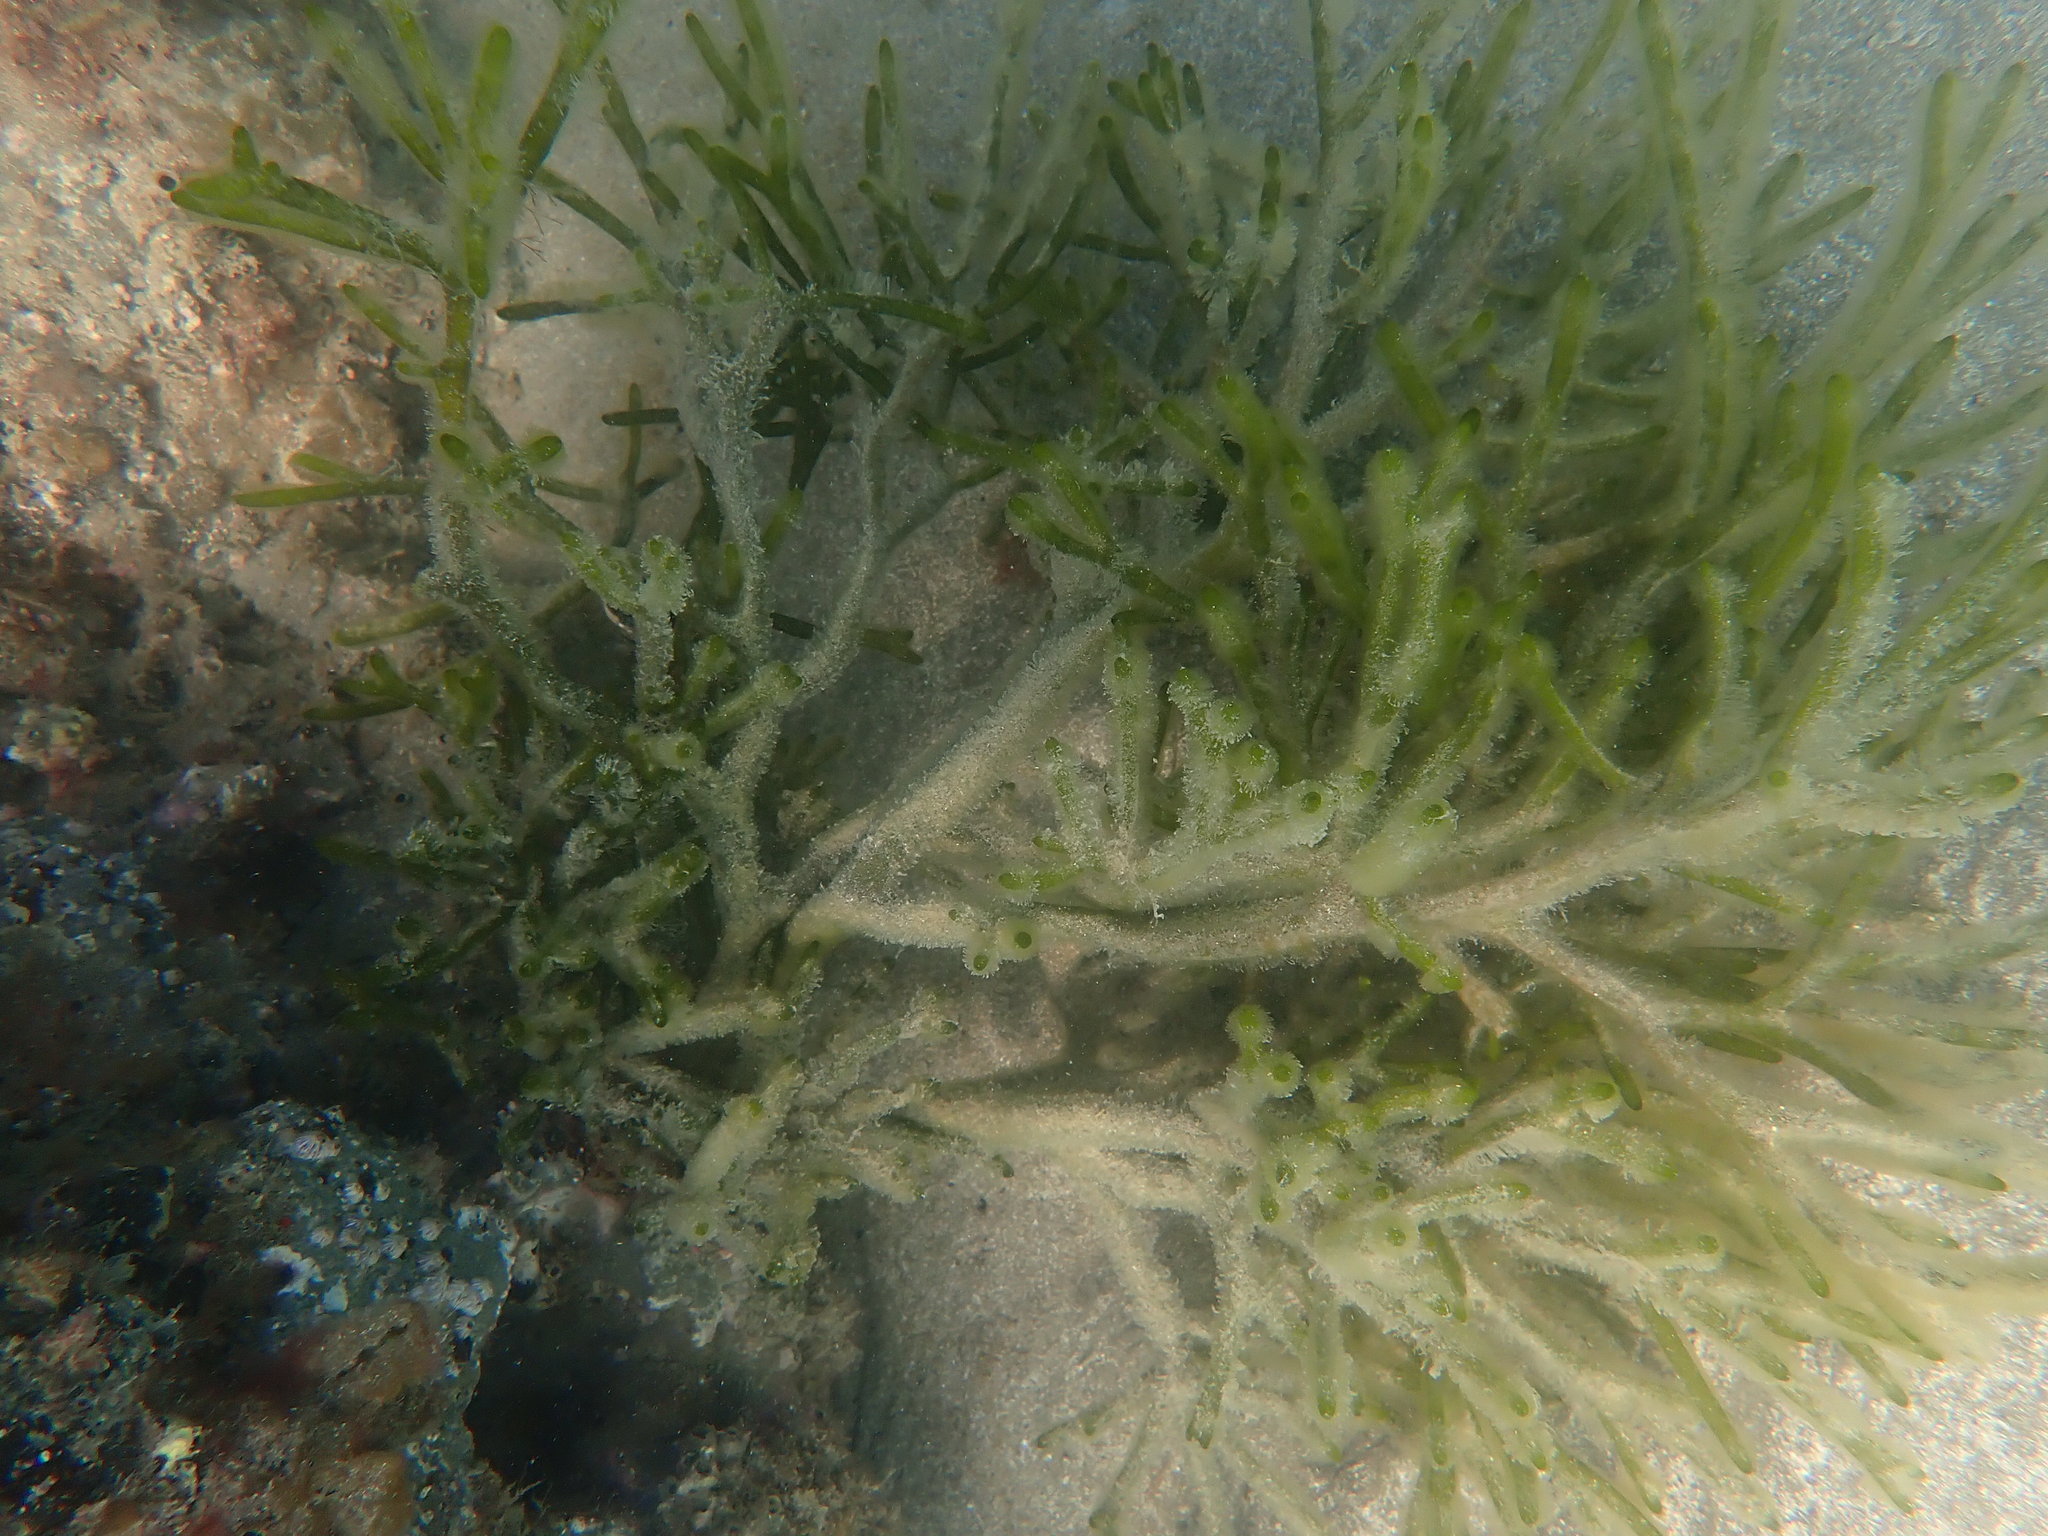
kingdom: Plantae
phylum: Chlorophyta
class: Ulvophyceae
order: Bryopsidales
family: Codiaceae
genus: Codium
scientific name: Codium fragile
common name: Dead man's fingers
